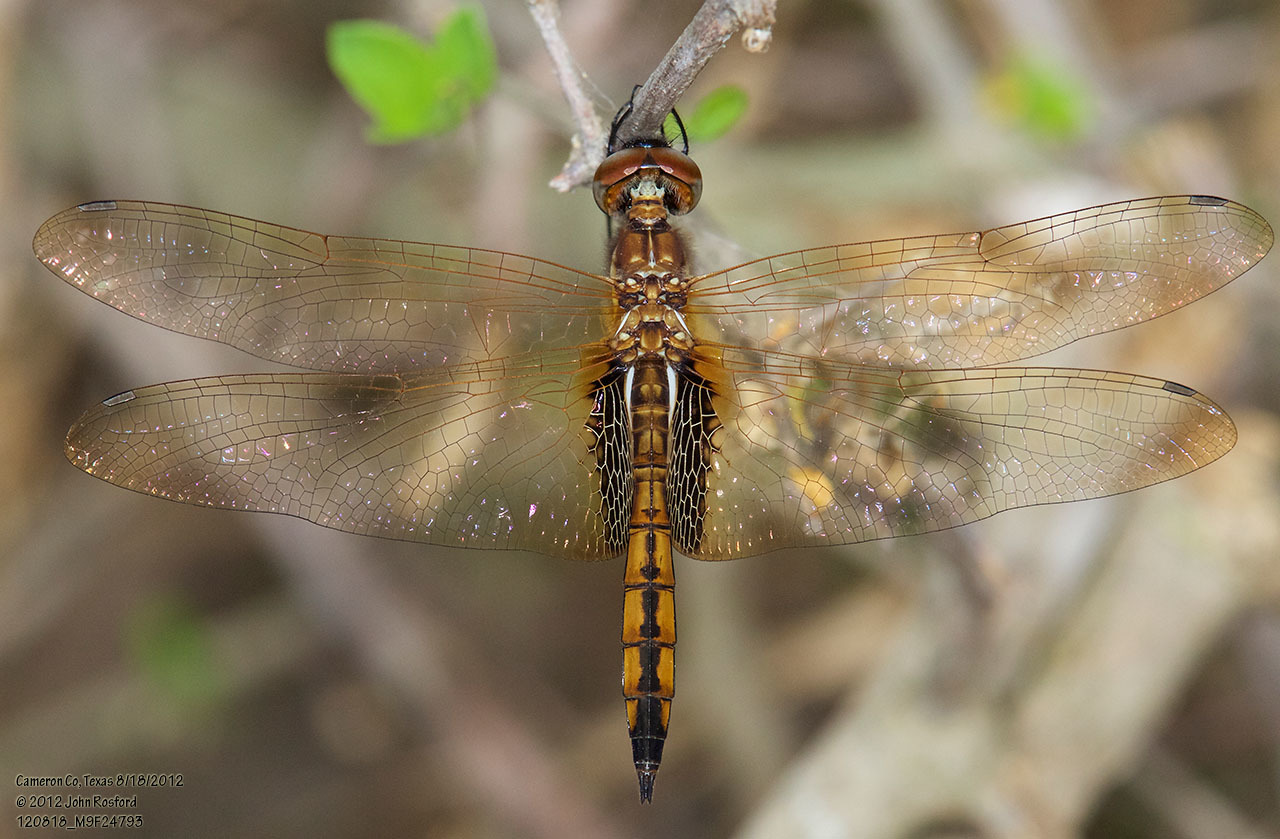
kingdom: Animalia
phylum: Arthropoda
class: Insecta
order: Odonata
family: Libellulidae
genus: Miathyria
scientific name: Miathyria marcella
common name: Hyacinth glider
